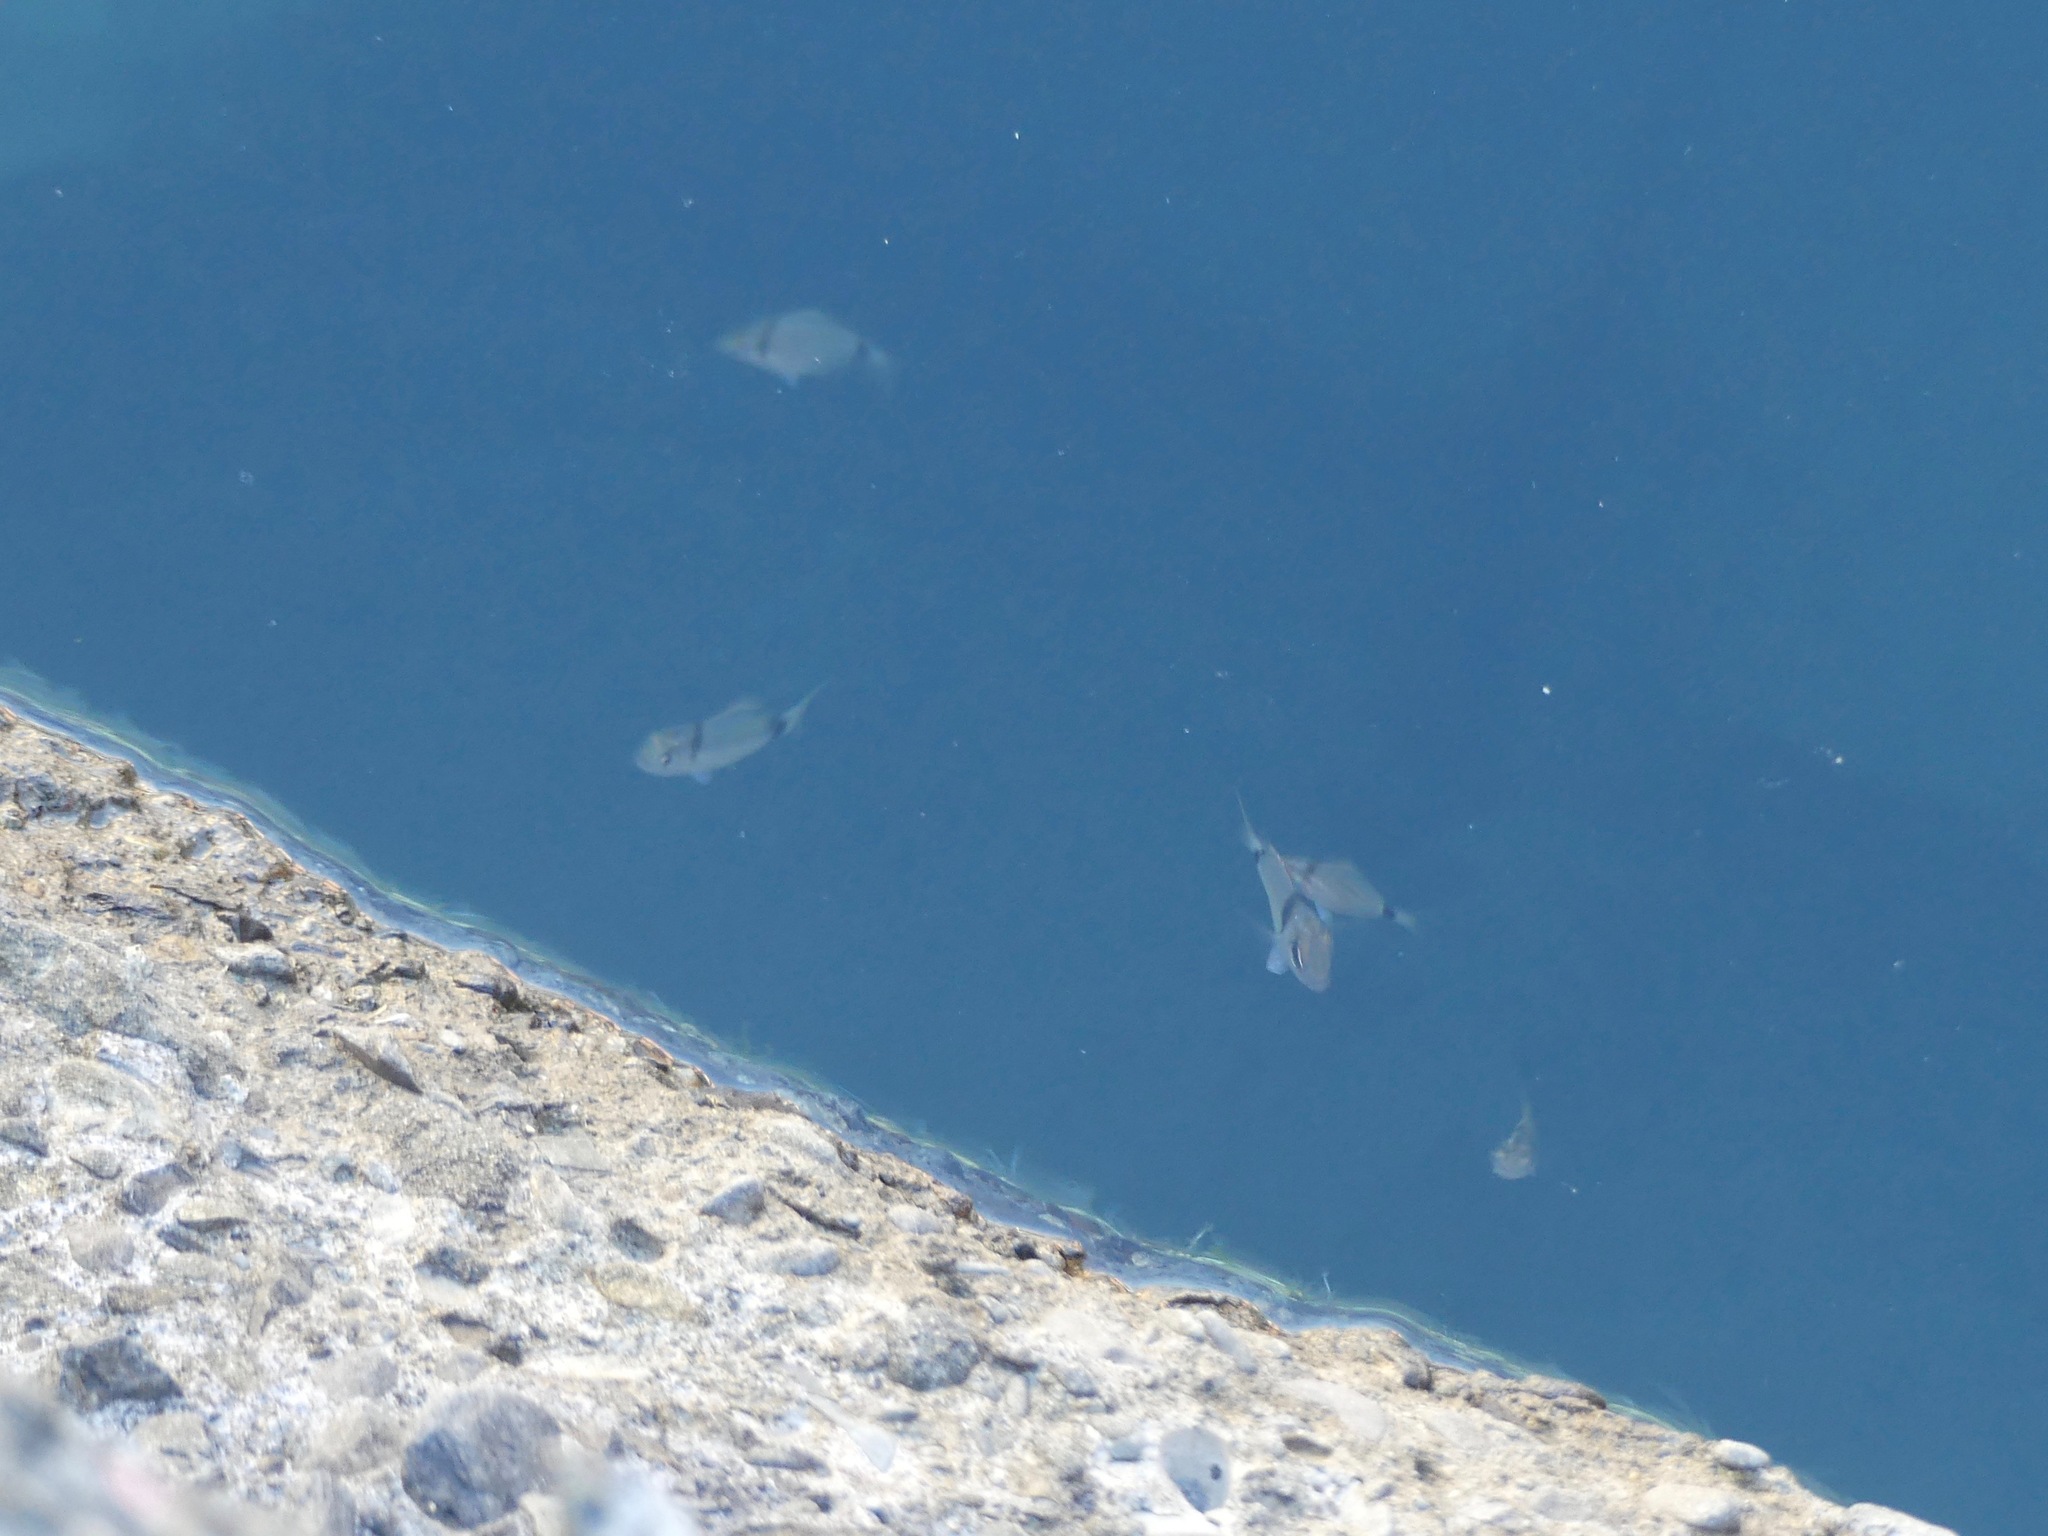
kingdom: Animalia
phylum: Chordata
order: Perciformes
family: Sparidae
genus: Diplodus
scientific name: Diplodus vulgaris
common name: Common two-banded seabream
